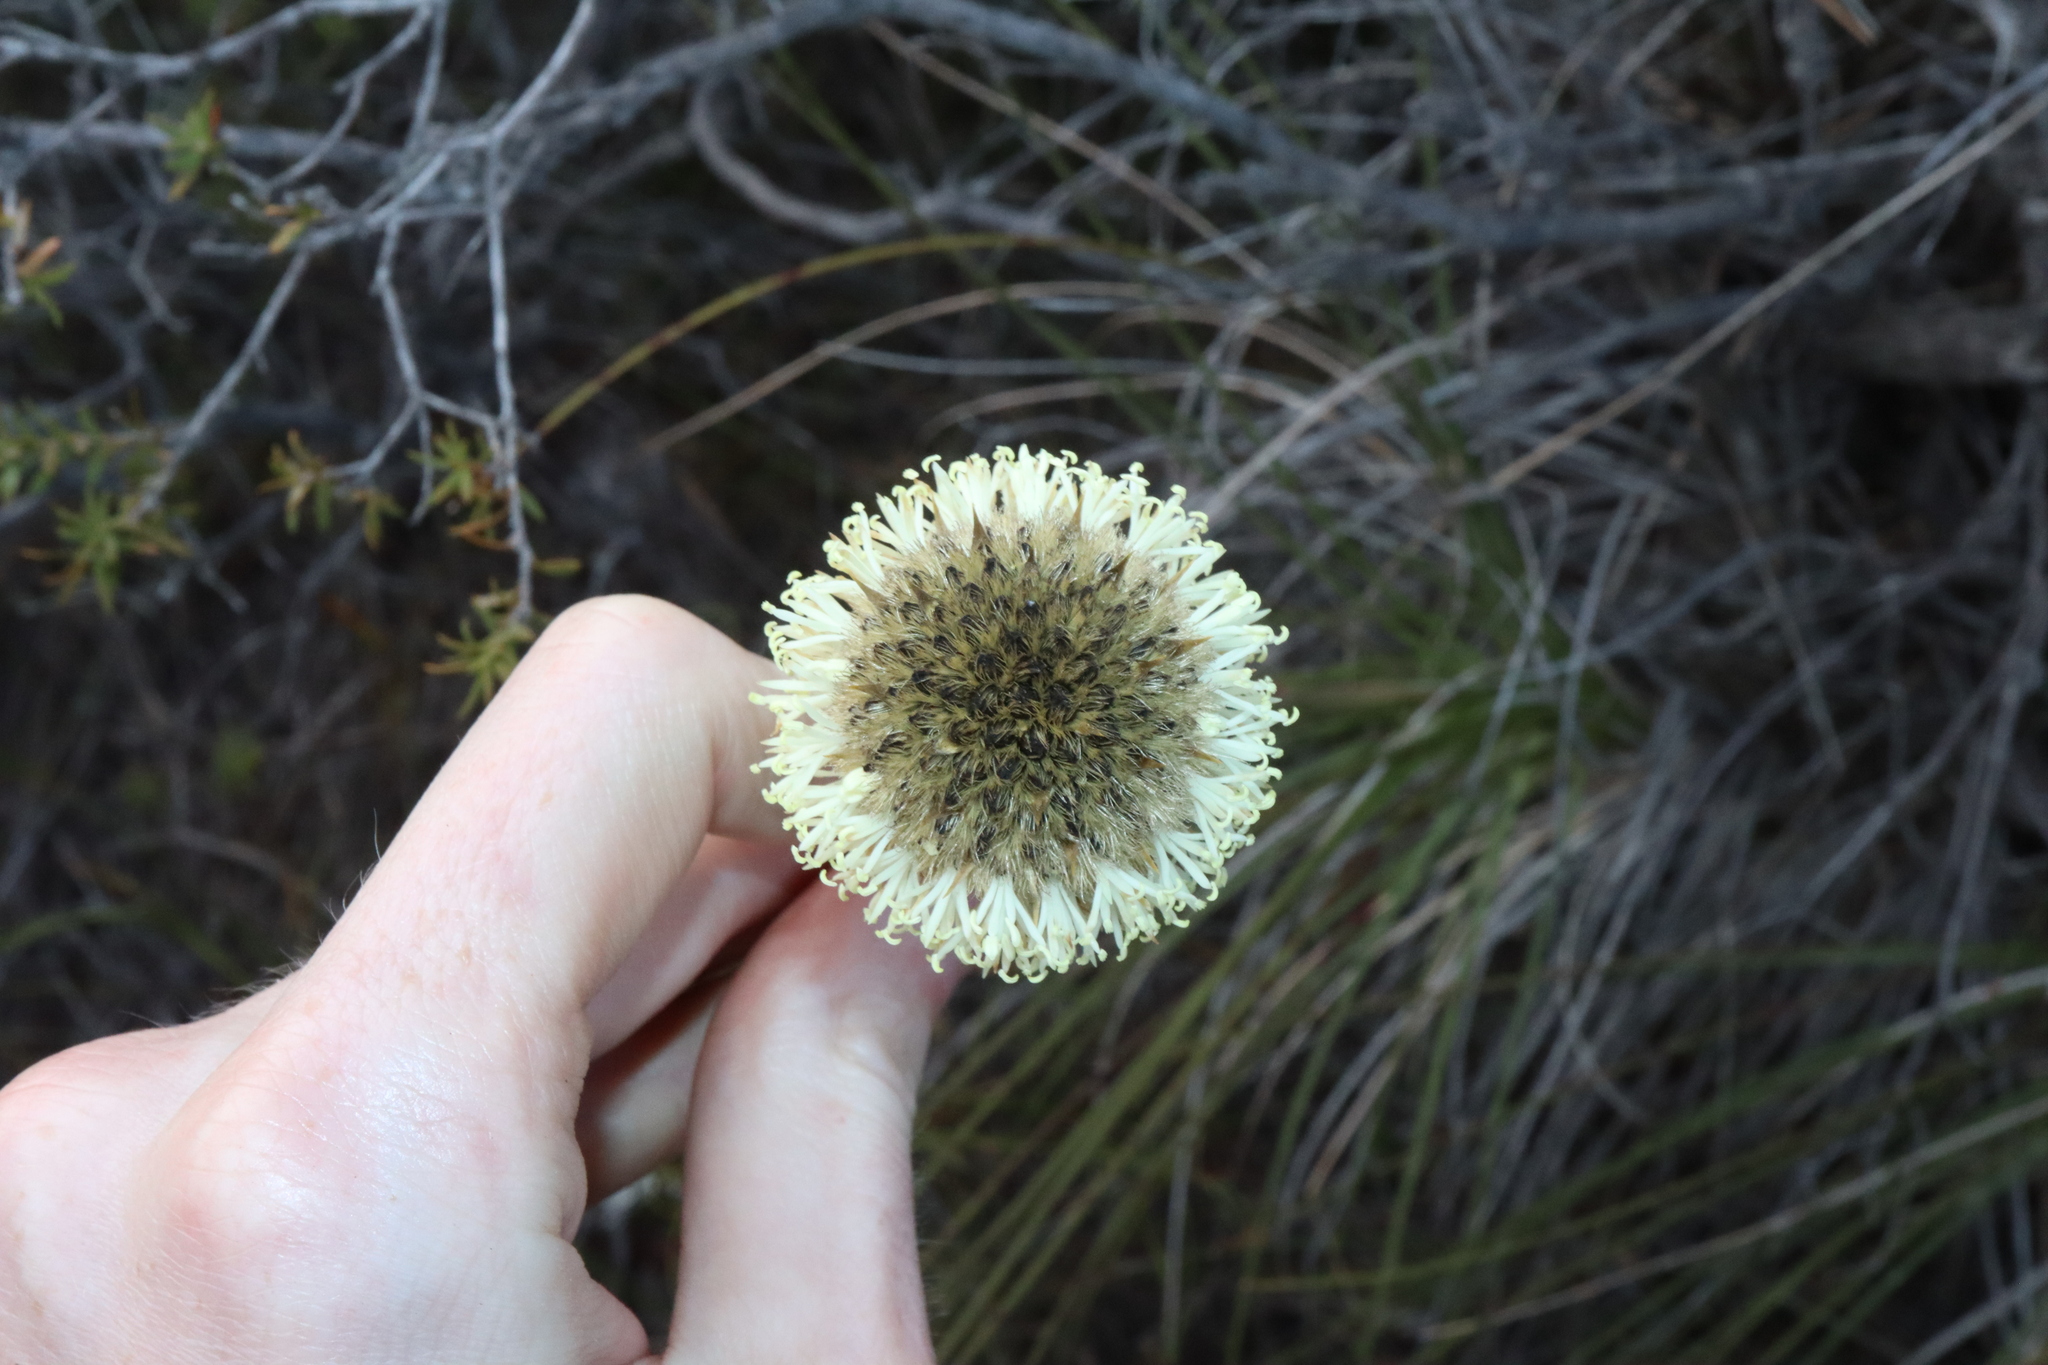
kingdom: Plantae
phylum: Tracheophyta
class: Liliopsida
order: Arecales
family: Dasypogonaceae
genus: Dasypogon
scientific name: Dasypogon bromeliifolius
